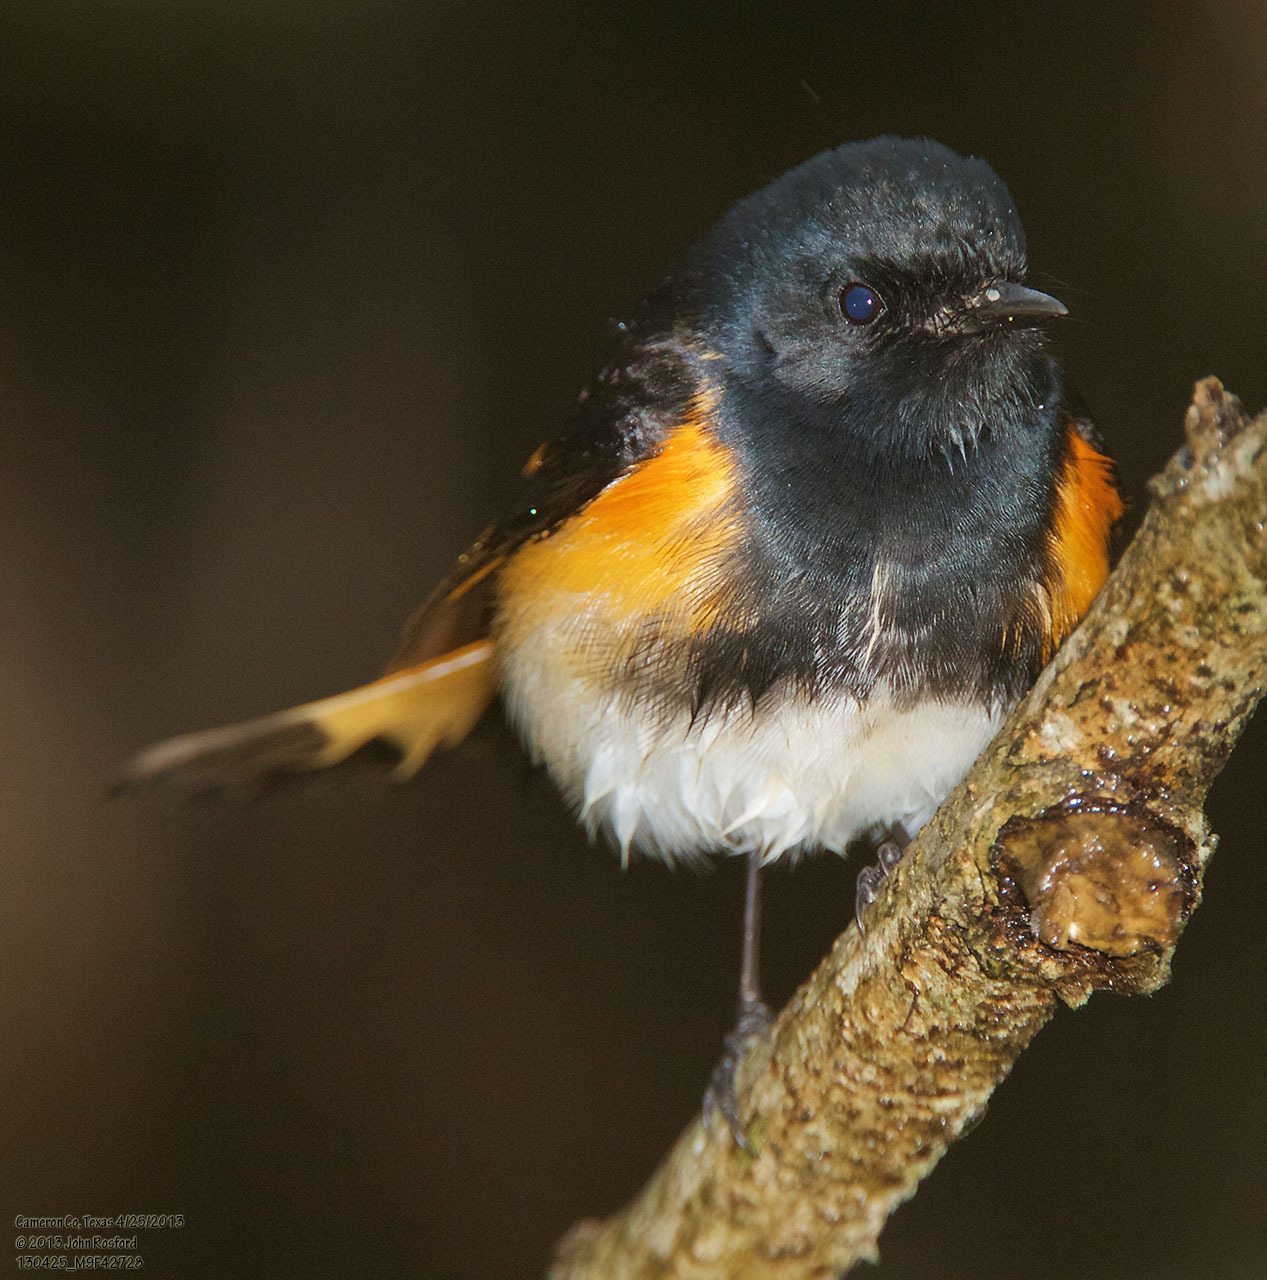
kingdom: Animalia
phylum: Chordata
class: Aves
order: Passeriformes
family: Parulidae
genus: Setophaga
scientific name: Setophaga ruticilla
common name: American redstart
